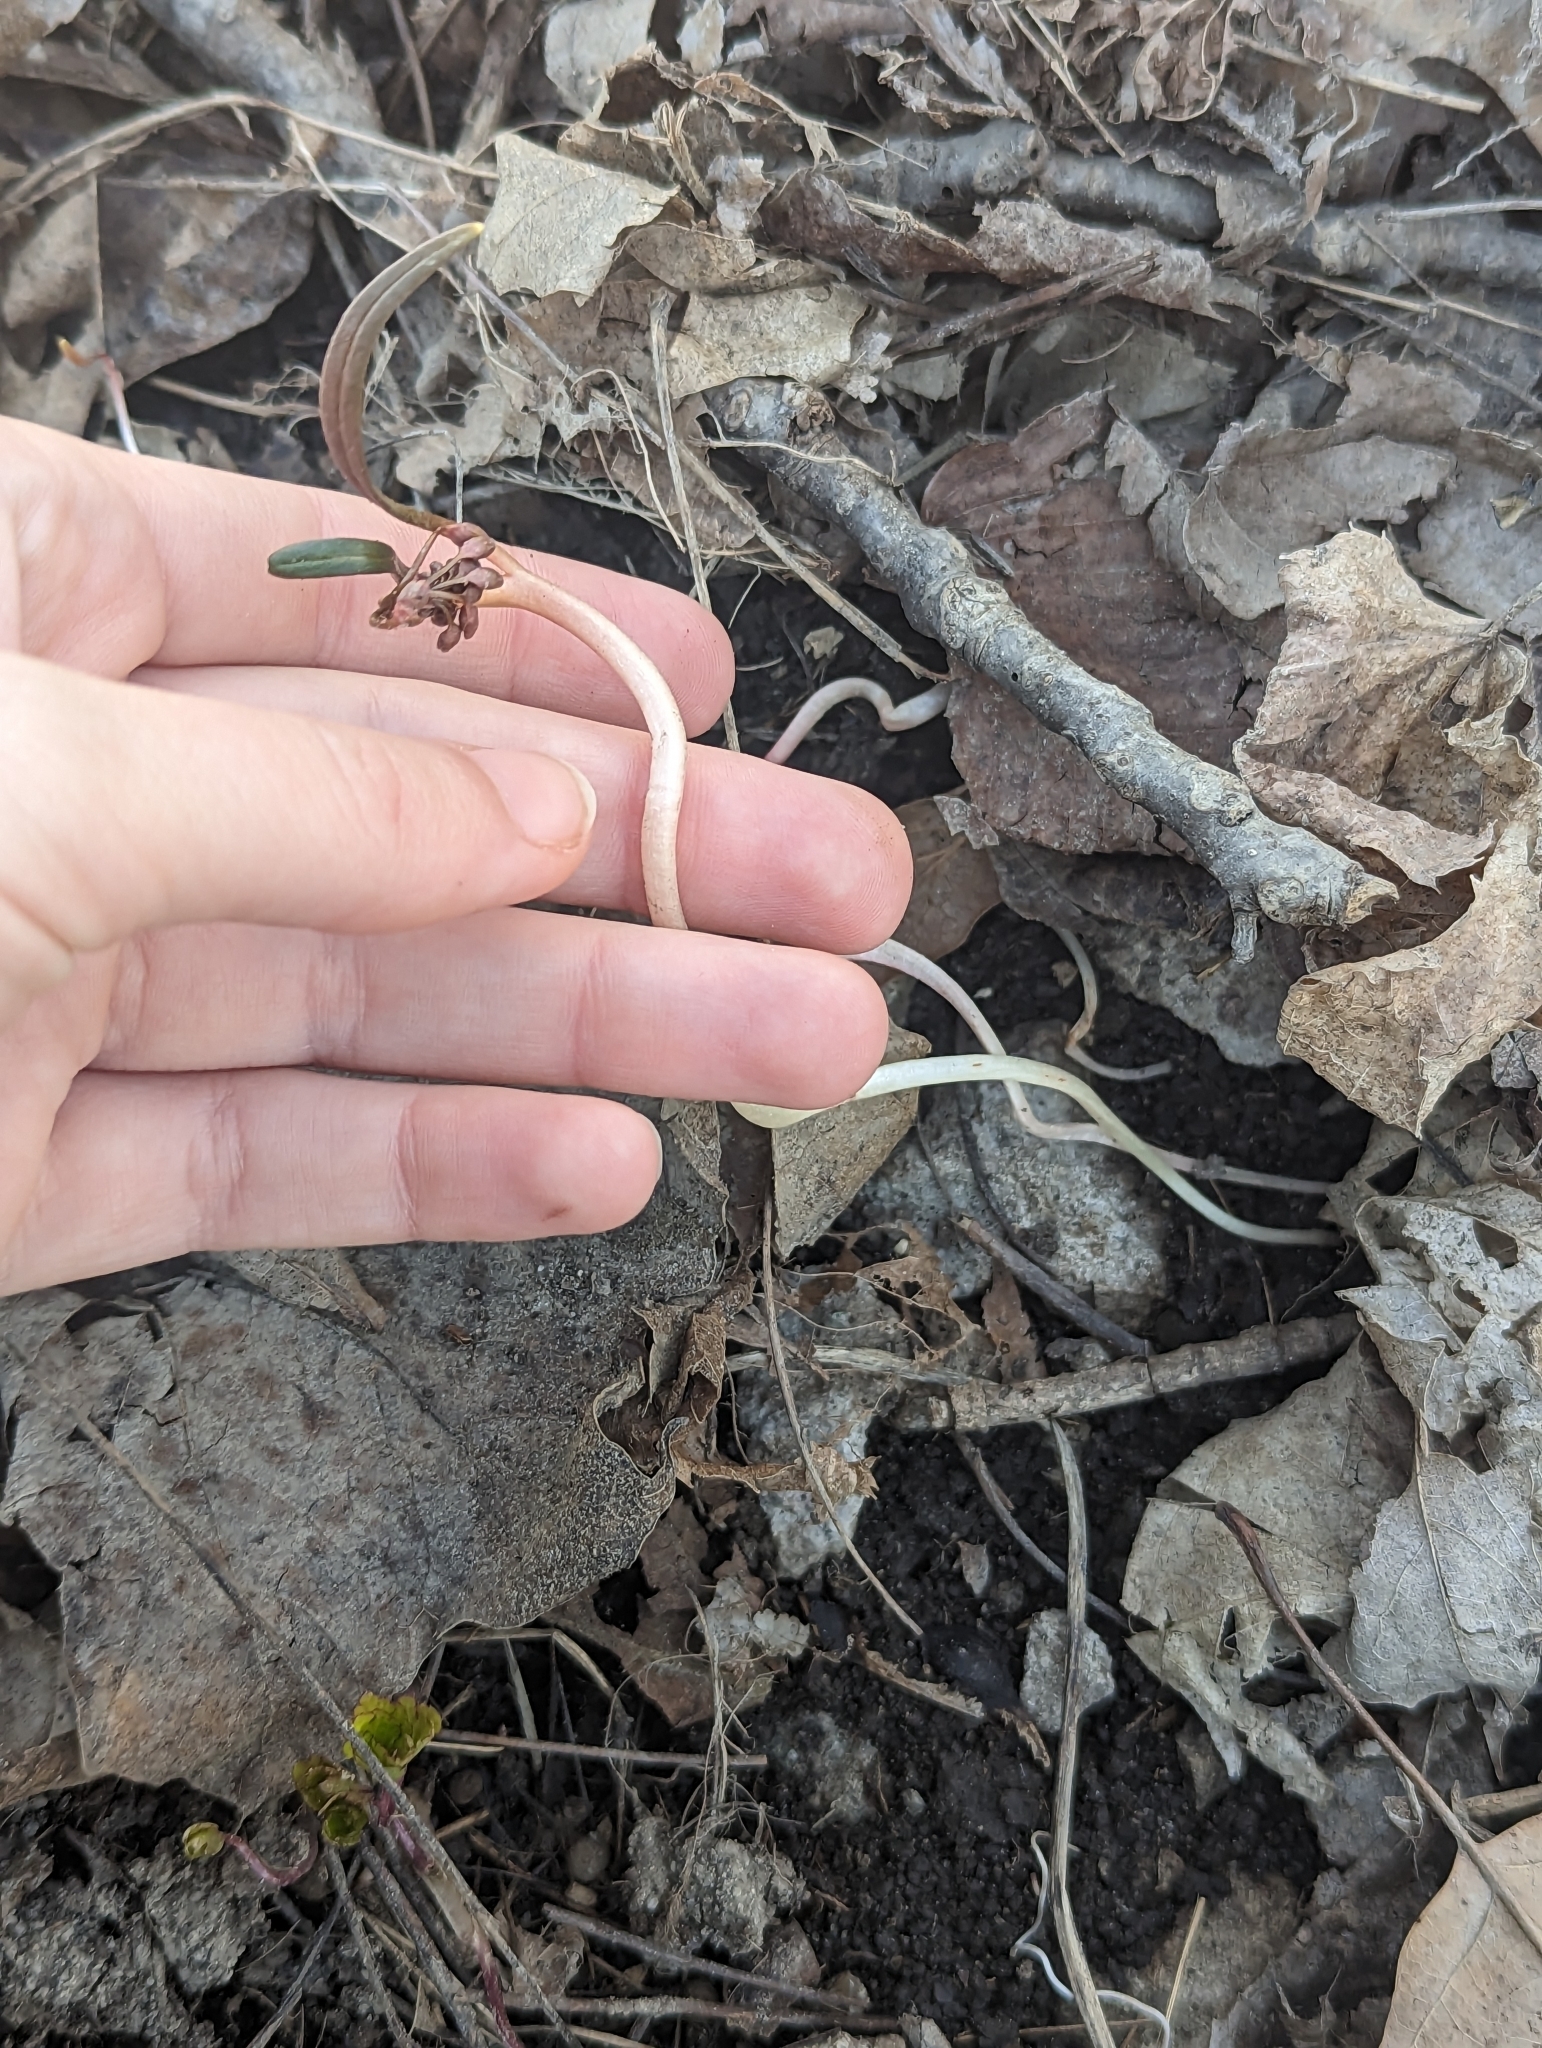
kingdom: Plantae
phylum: Tracheophyta
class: Magnoliopsida
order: Caryophyllales
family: Montiaceae
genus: Claytonia
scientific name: Claytonia virginica
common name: Virginia springbeauty
